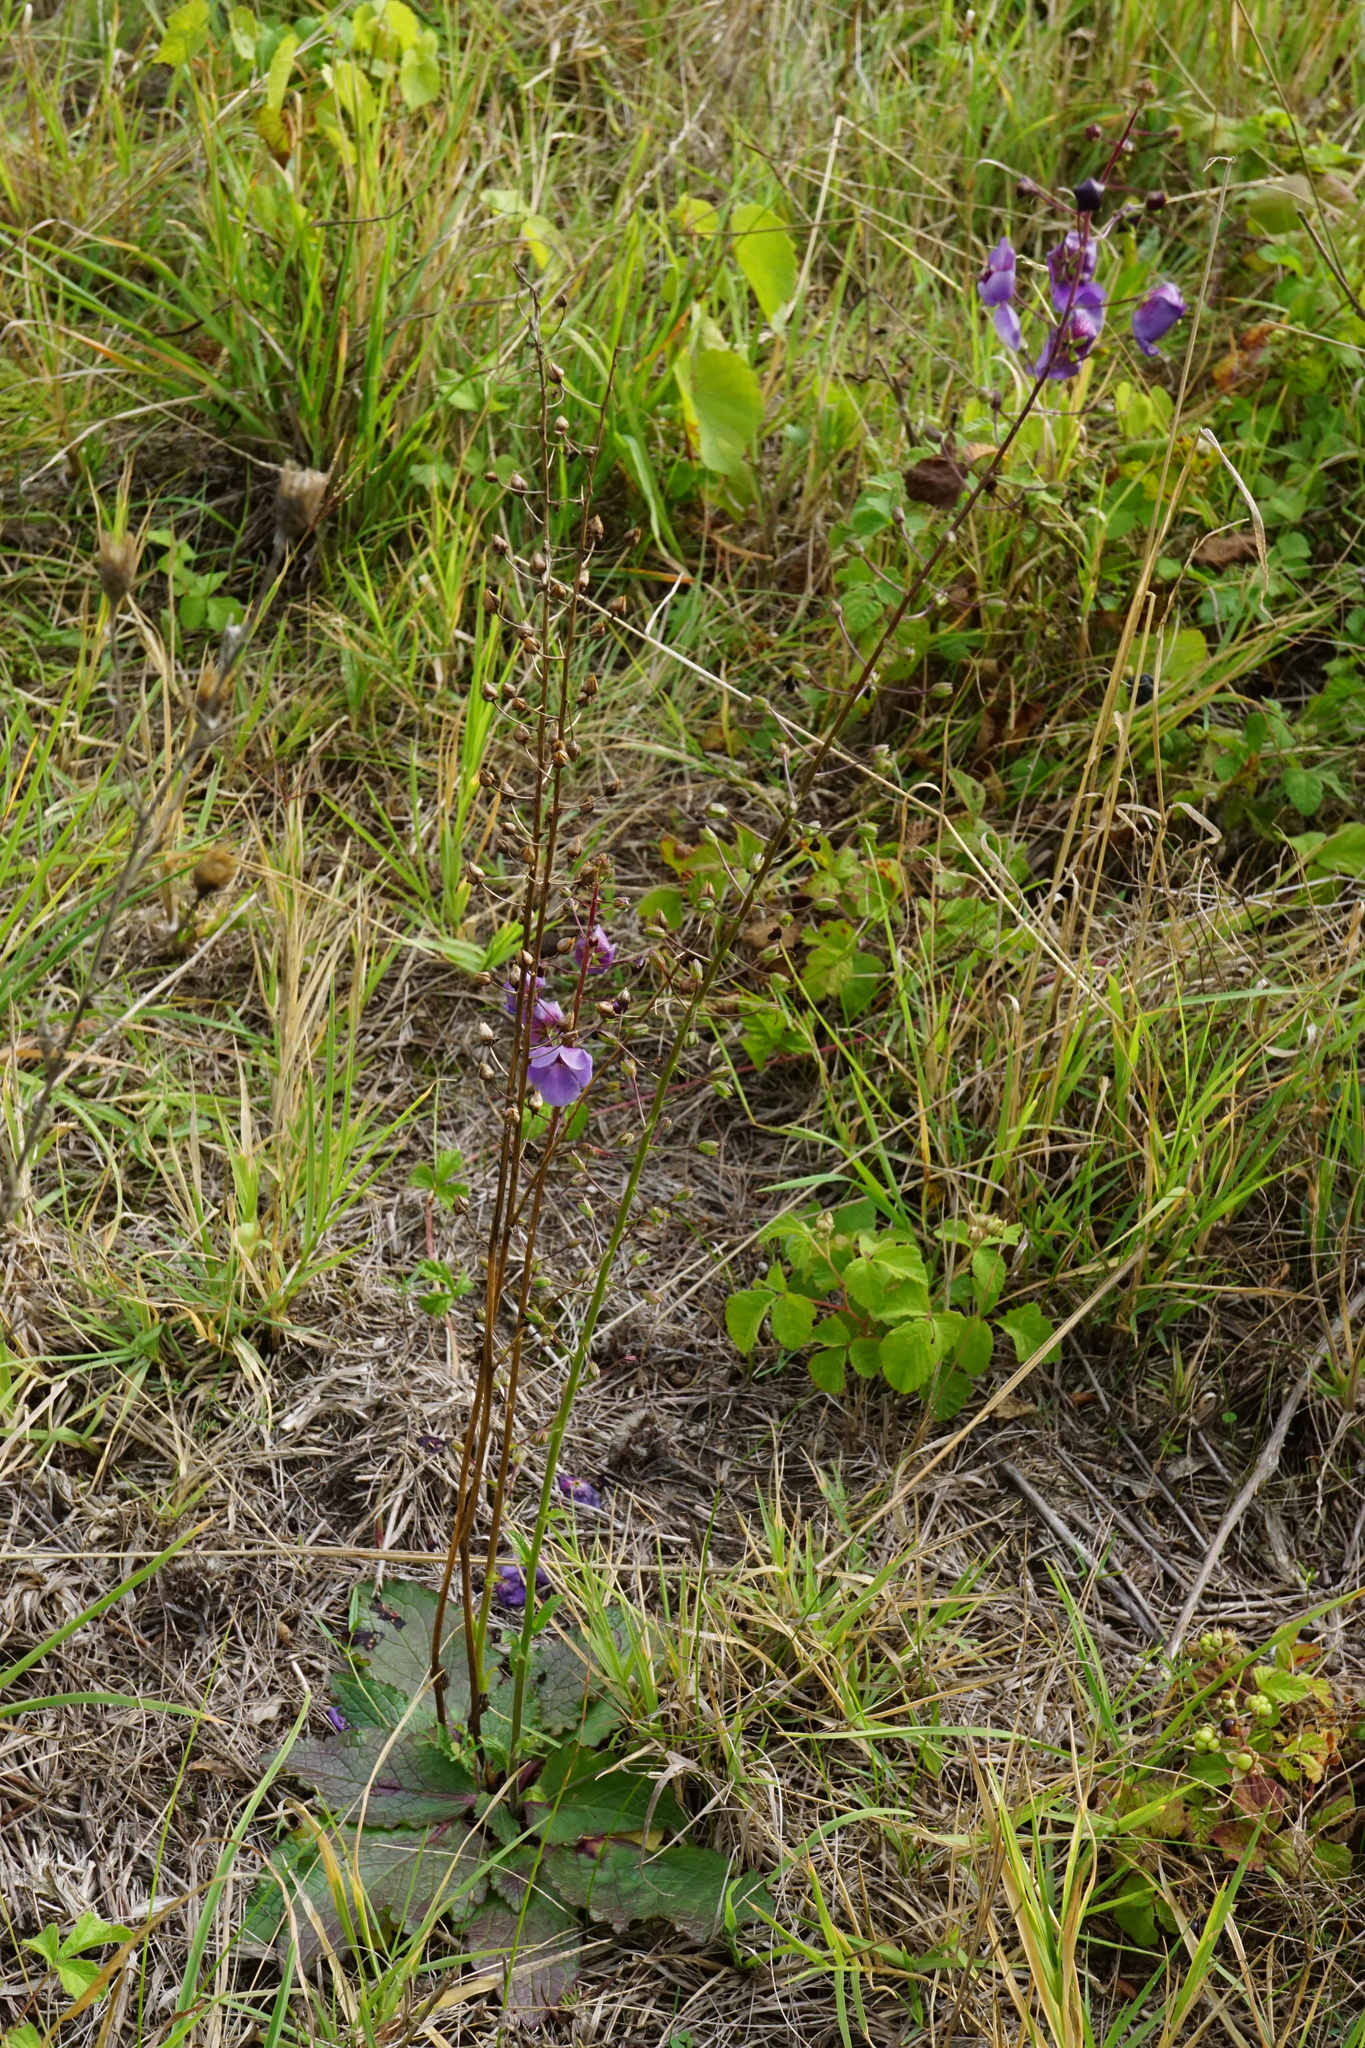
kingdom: Plantae
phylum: Tracheophyta
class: Magnoliopsida
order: Lamiales
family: Scrophulariaceae
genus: Verbascum
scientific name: Verbascum phoeniceum
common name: Purple mullein
